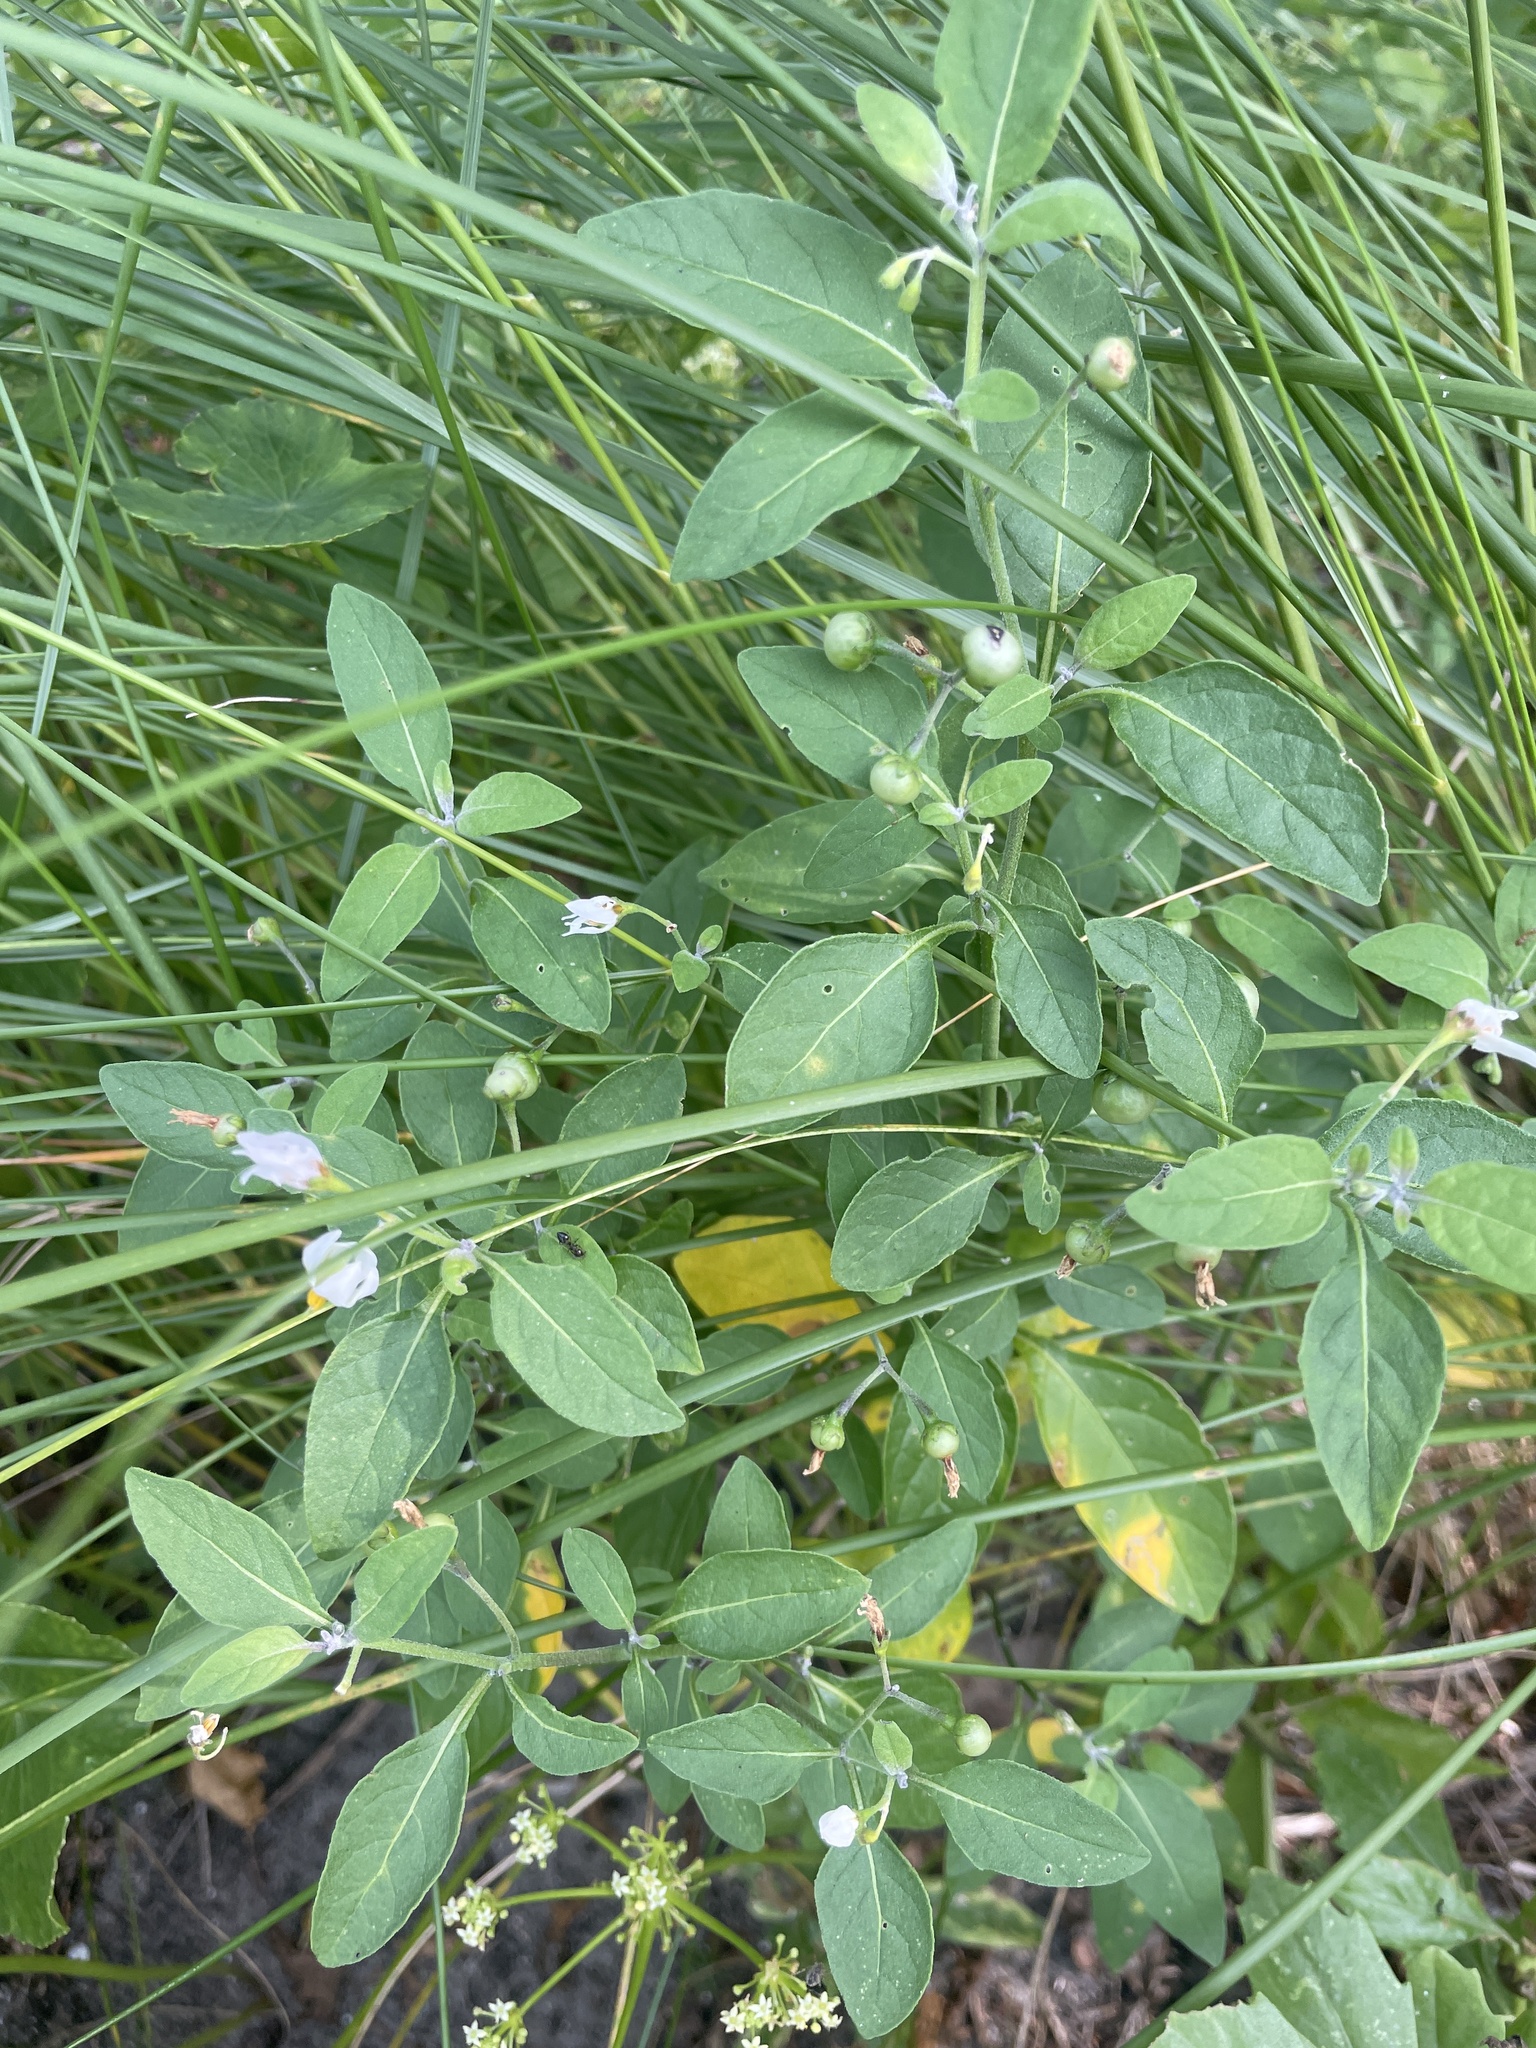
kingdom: Plantae
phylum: Tracheophyta
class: Magnoliopsida
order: Solanales
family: Solanaceae
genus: Solanum
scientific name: Solanum pseudogracile
